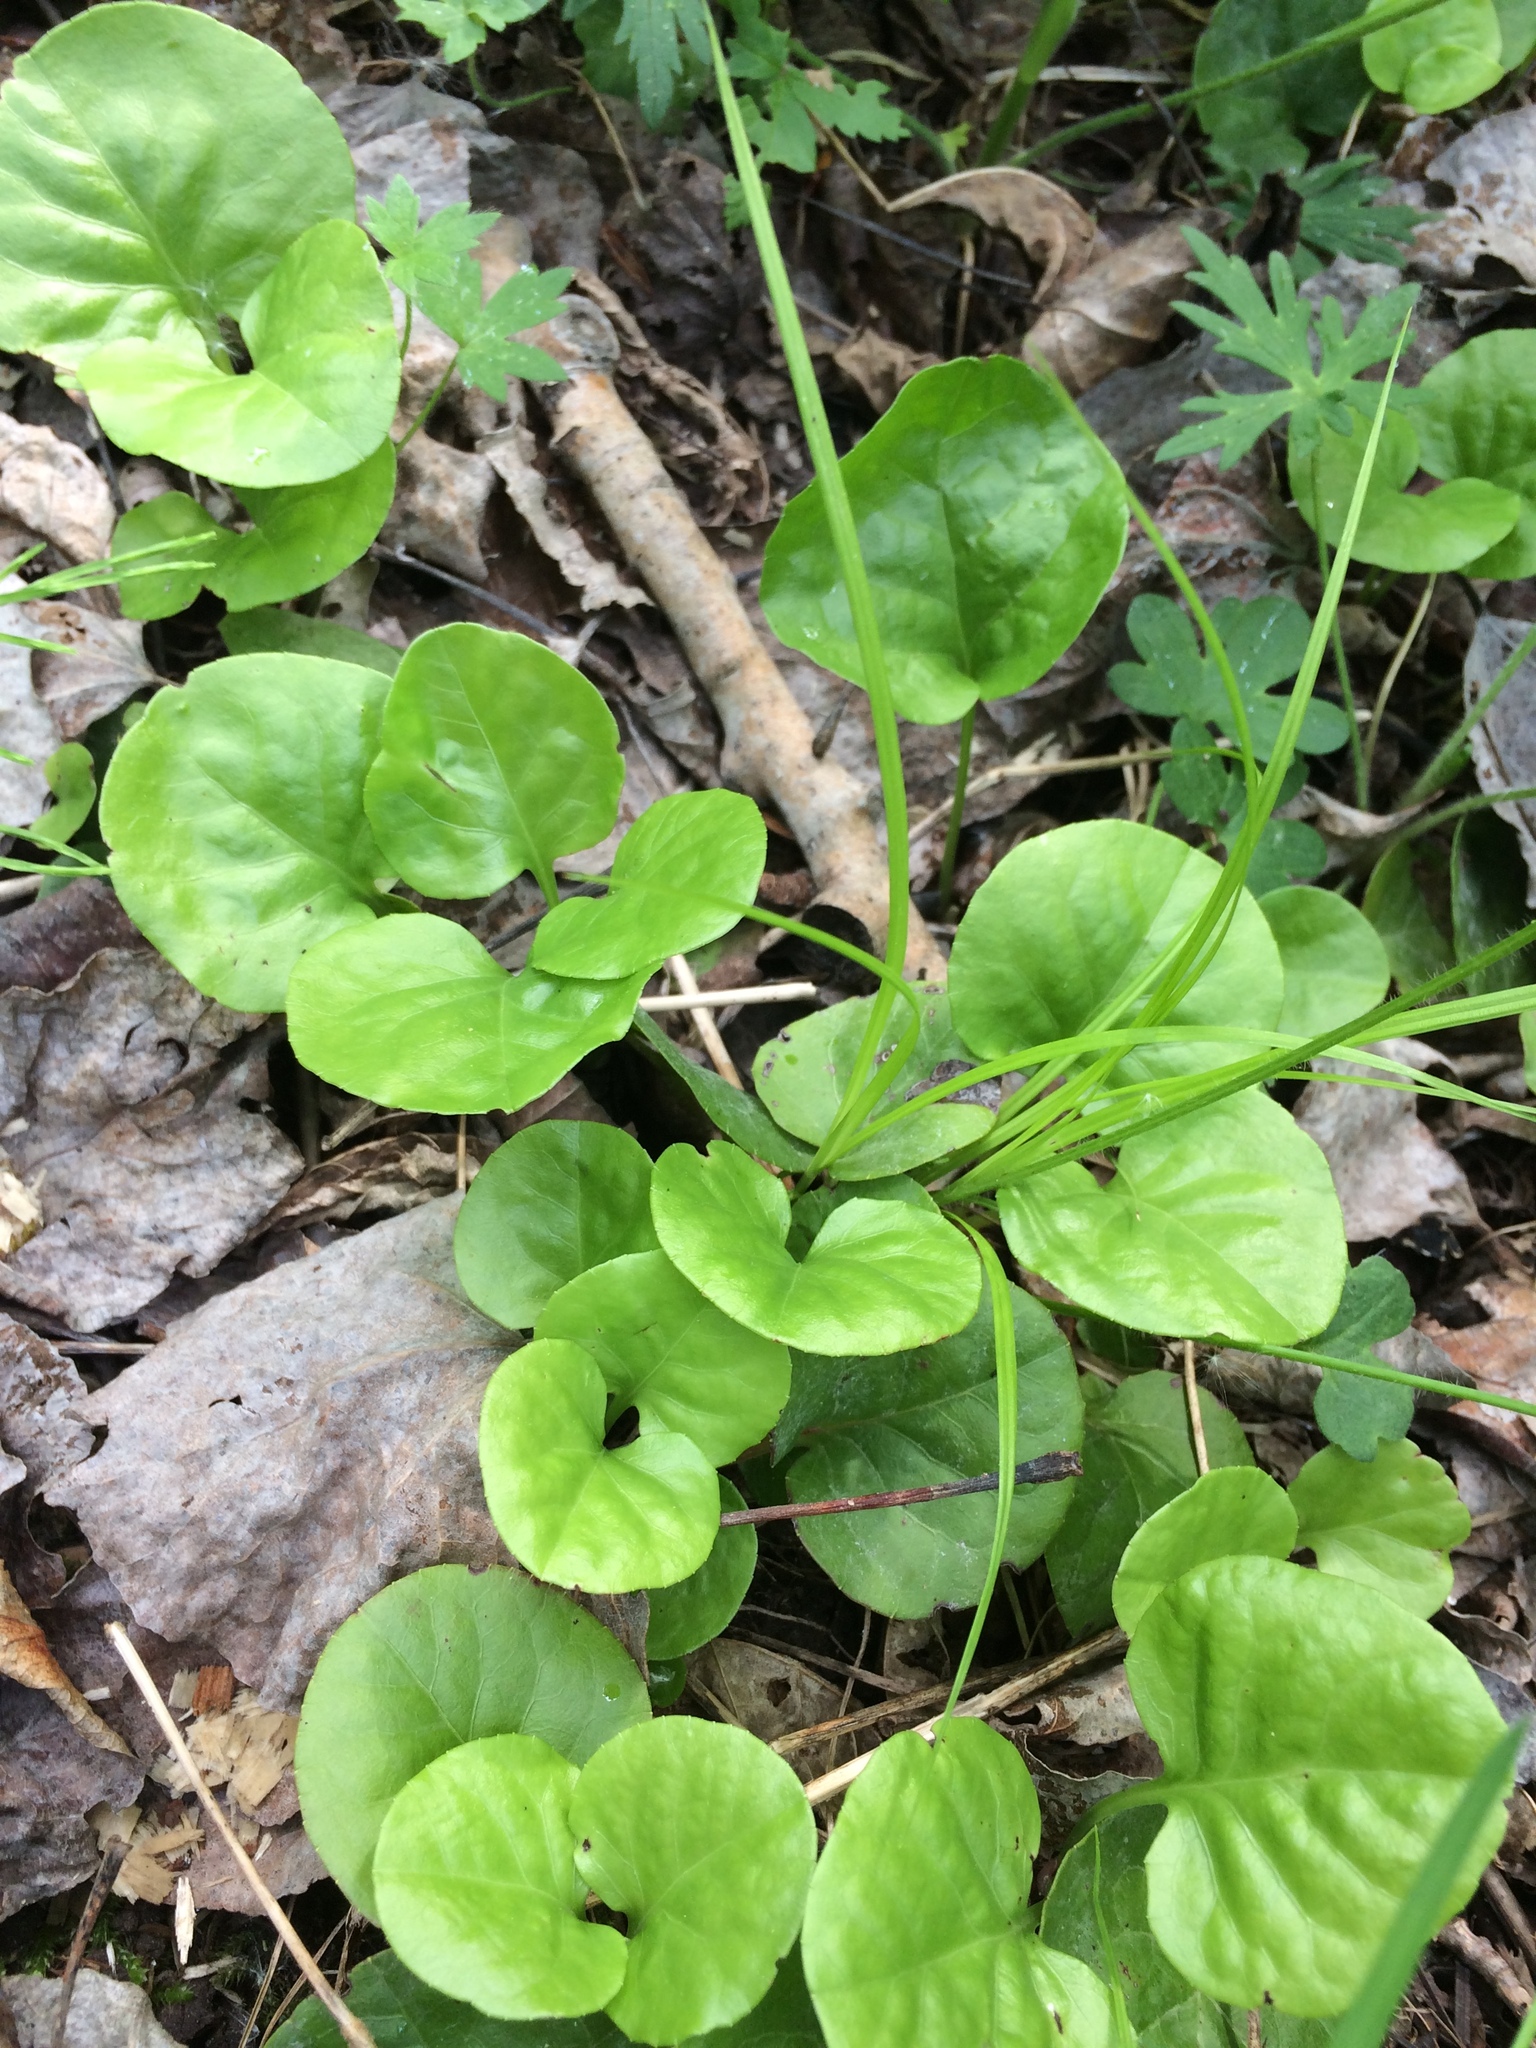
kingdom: Plantae
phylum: Tracheophyta
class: Magnoliopsida
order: Ericales
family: Ericaceae
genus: Pyrola
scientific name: Pyrola asarifolia
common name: Bog wintergreen
